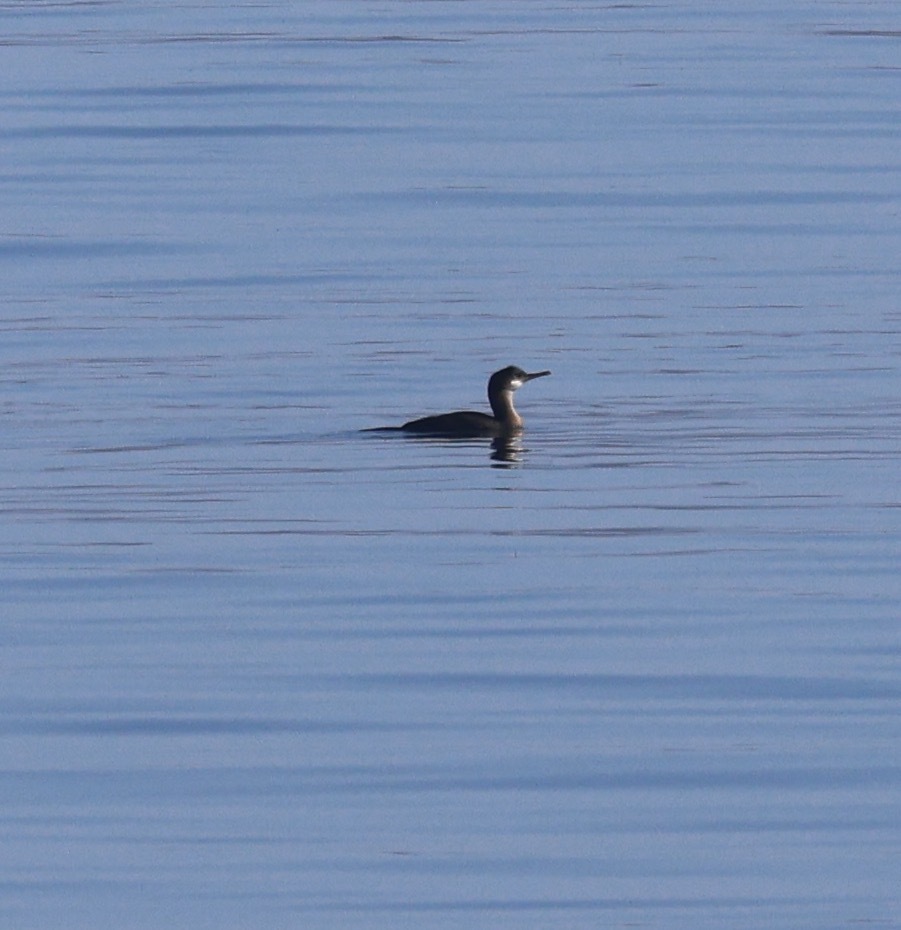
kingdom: Animalia
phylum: Chordata
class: Aves
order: Suliformes
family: Phalacrocoracidae
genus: Phalacrocorax
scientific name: Phalacrocorax aristotelis
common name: European shag
